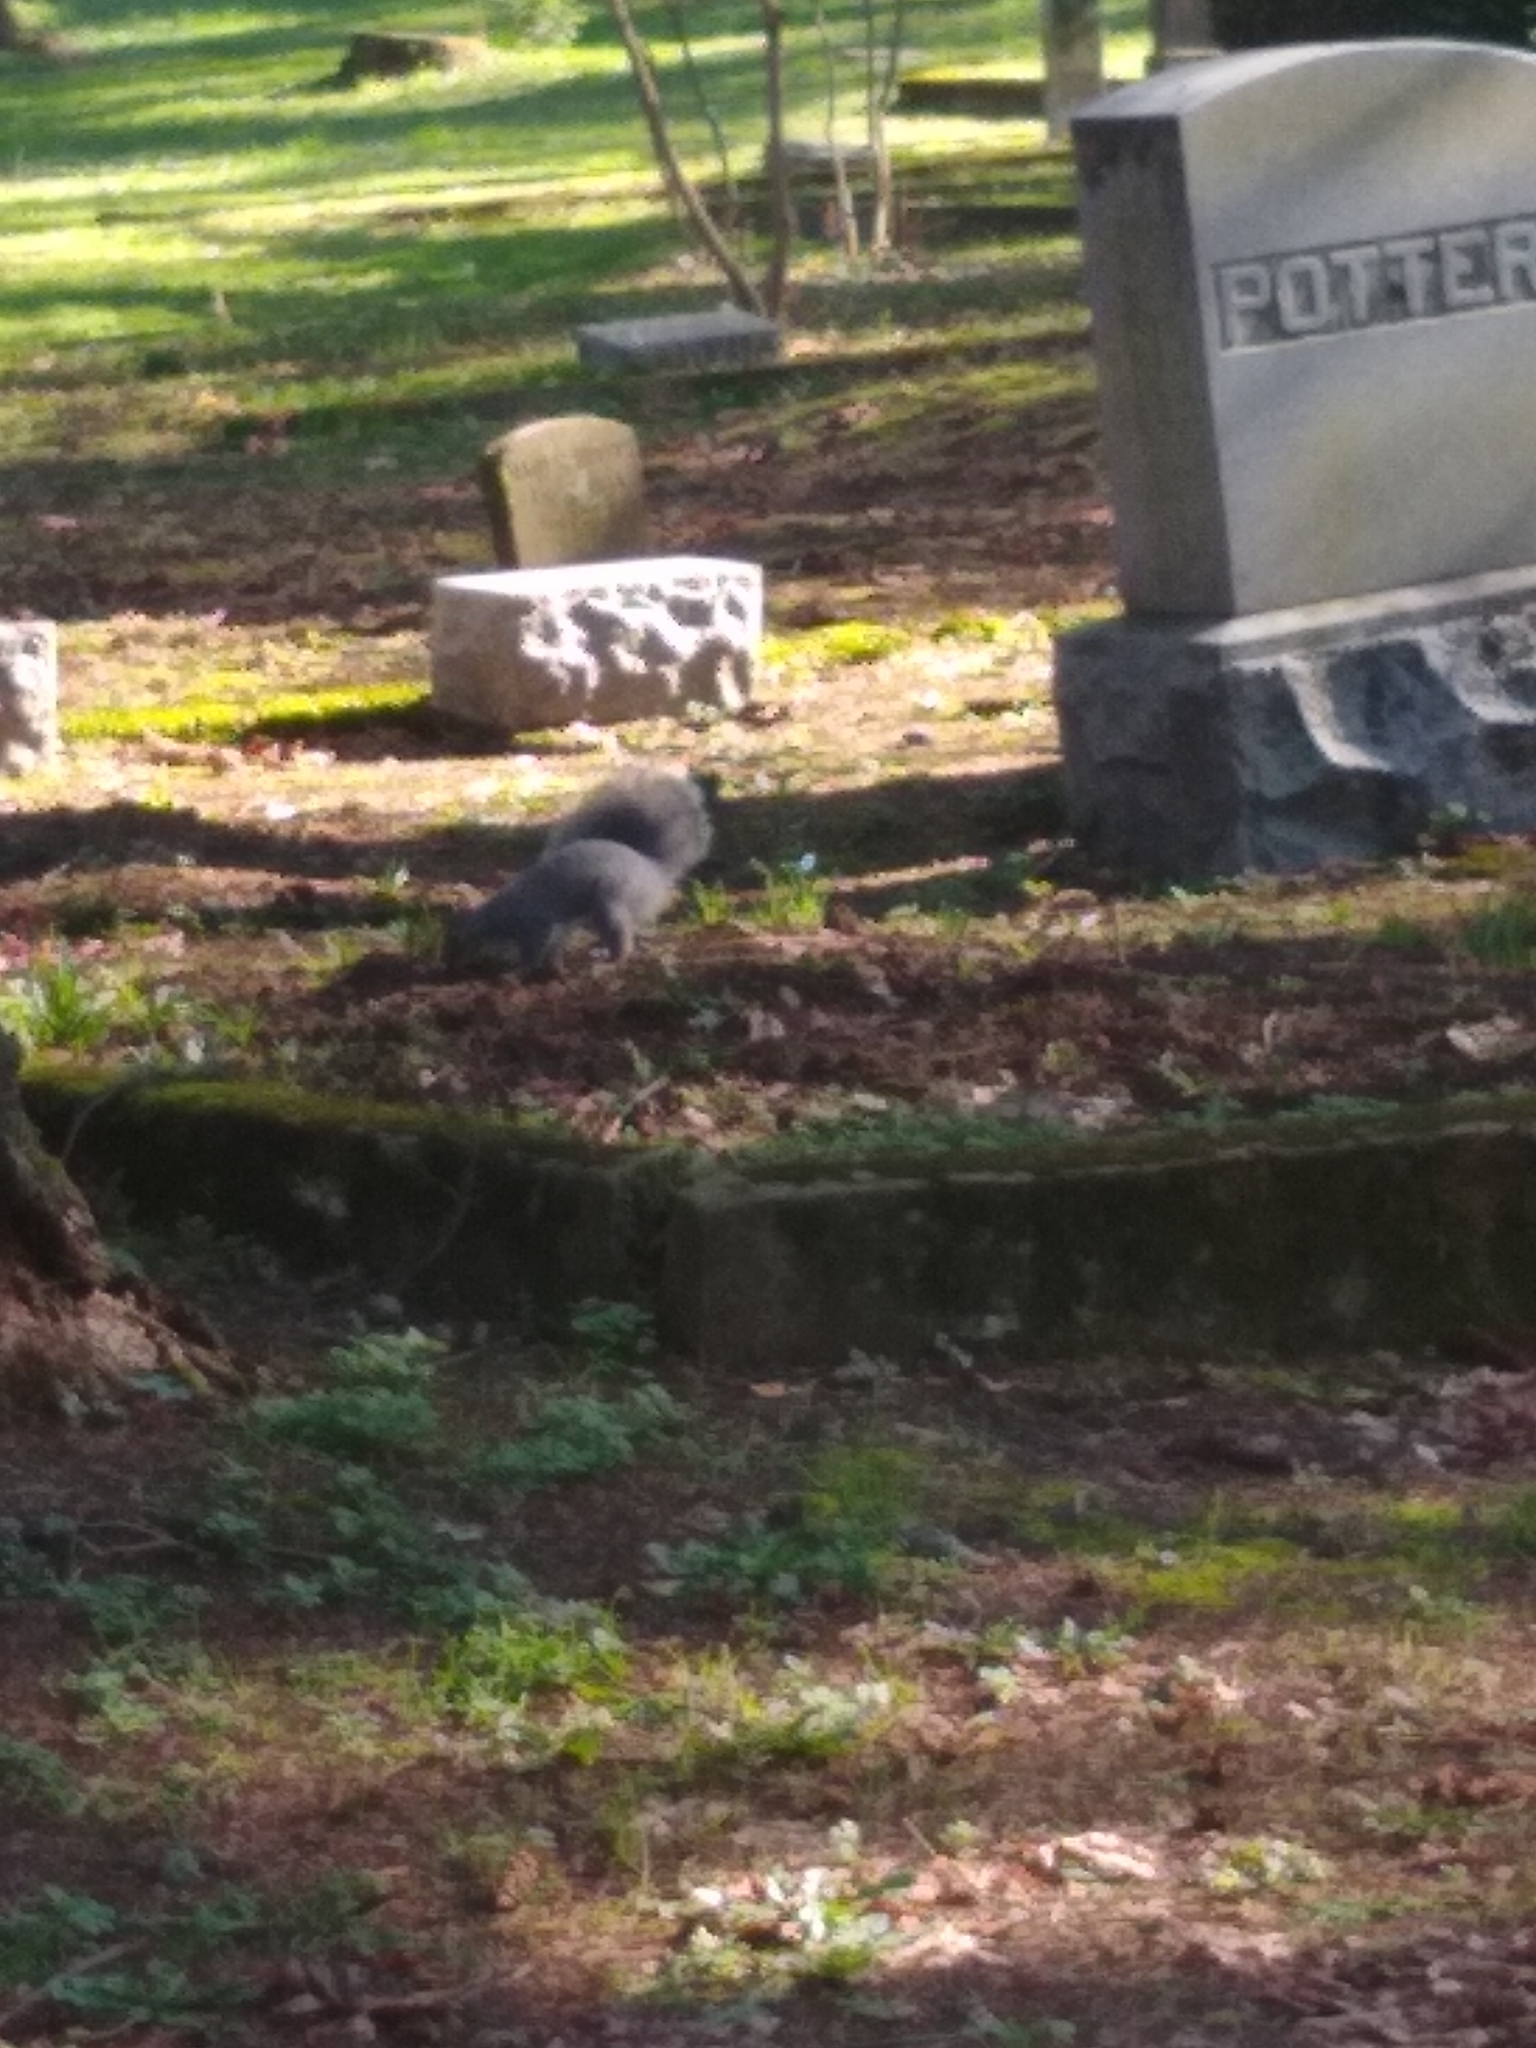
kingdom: Animalia
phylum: Chordata
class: Mammalia
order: Rodentia
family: Sciuridae
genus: Sciurus
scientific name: Sciurus griseus
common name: Western gray squirrel
